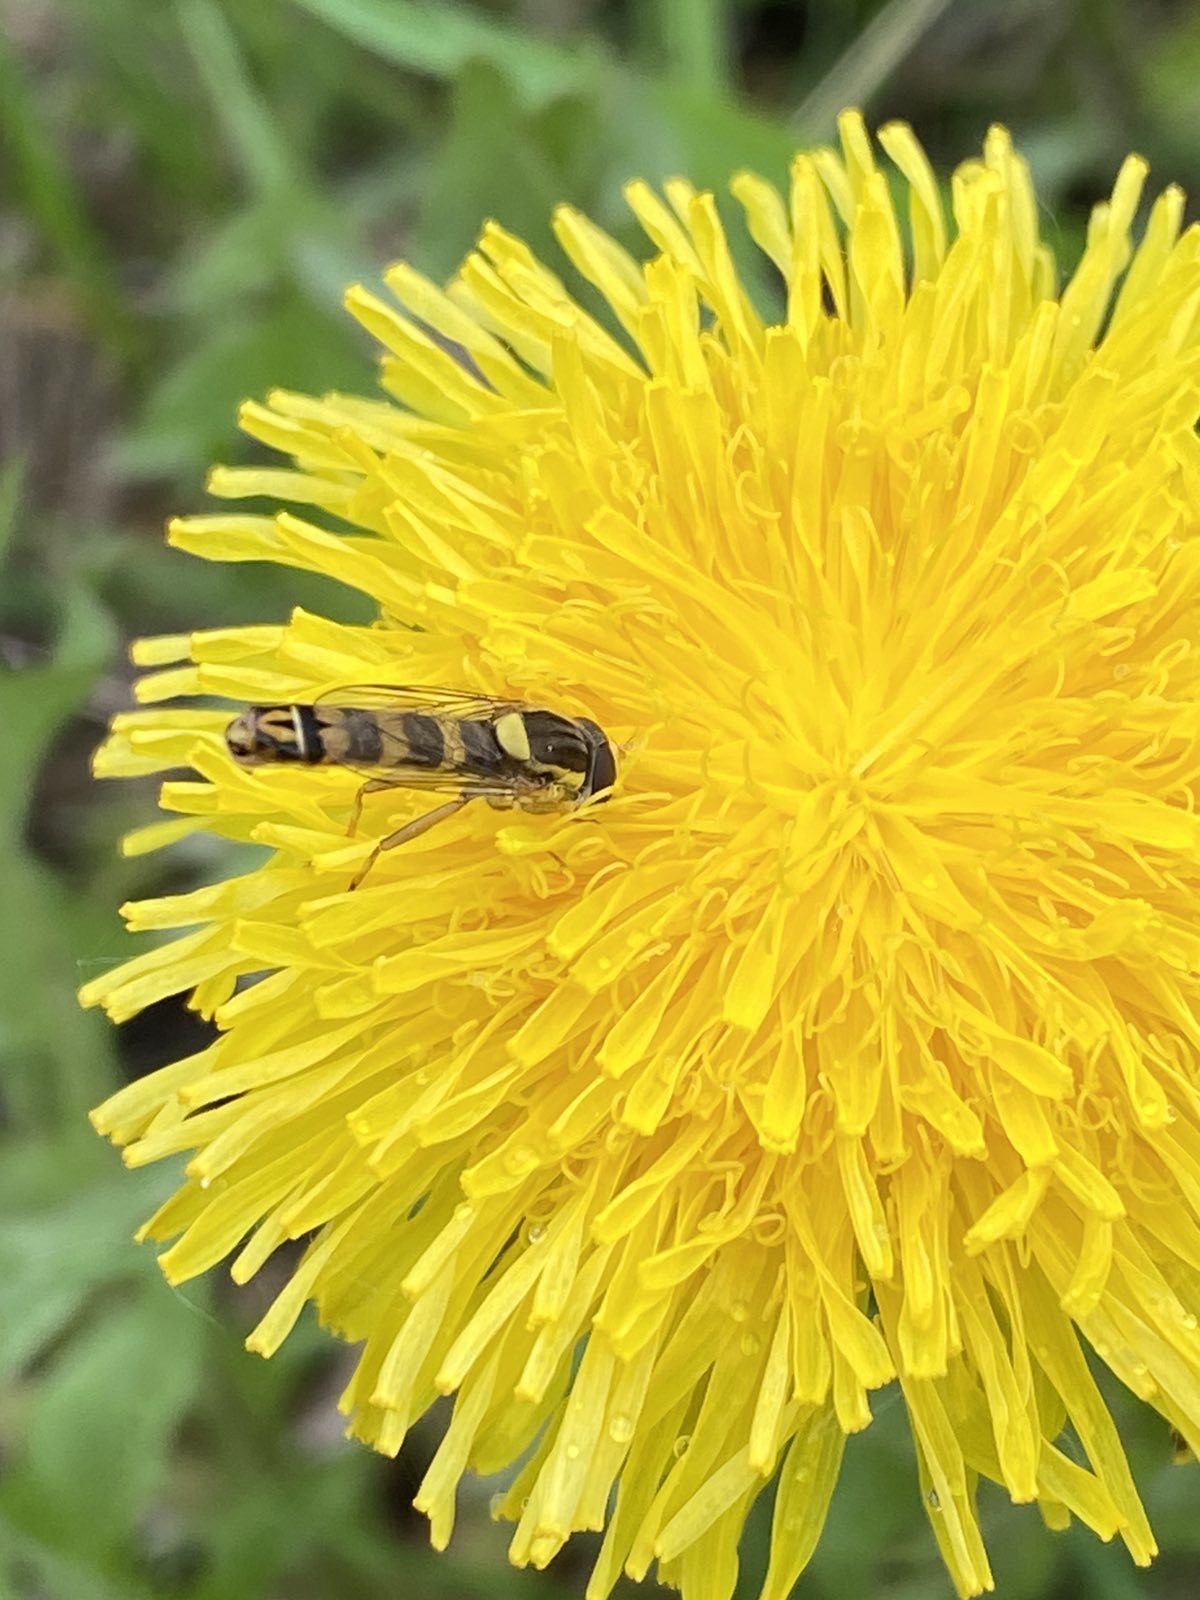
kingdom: Animalia
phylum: Arthropoda
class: Insecta
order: Diptera
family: Syrphidae
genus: Sphaerophoria
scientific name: Sphaerophoria scripta
